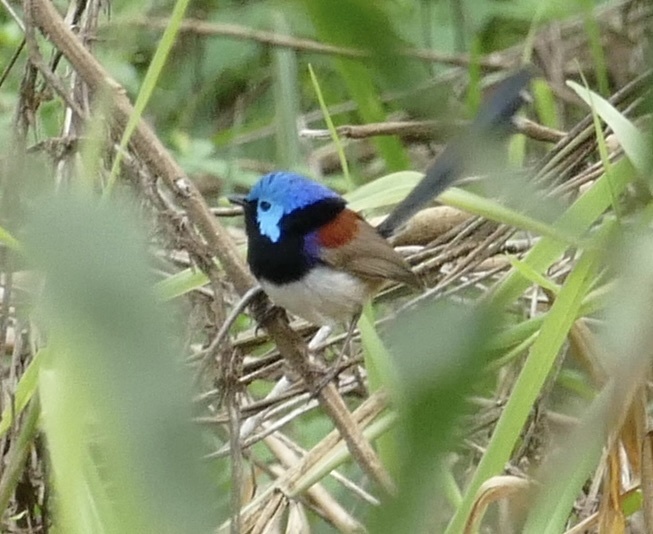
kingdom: Animalia
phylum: Chordata
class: Aves
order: Passeriformes
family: Maluridae
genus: Malurus
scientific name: Malurus lamberti
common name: Variegated fairywren
